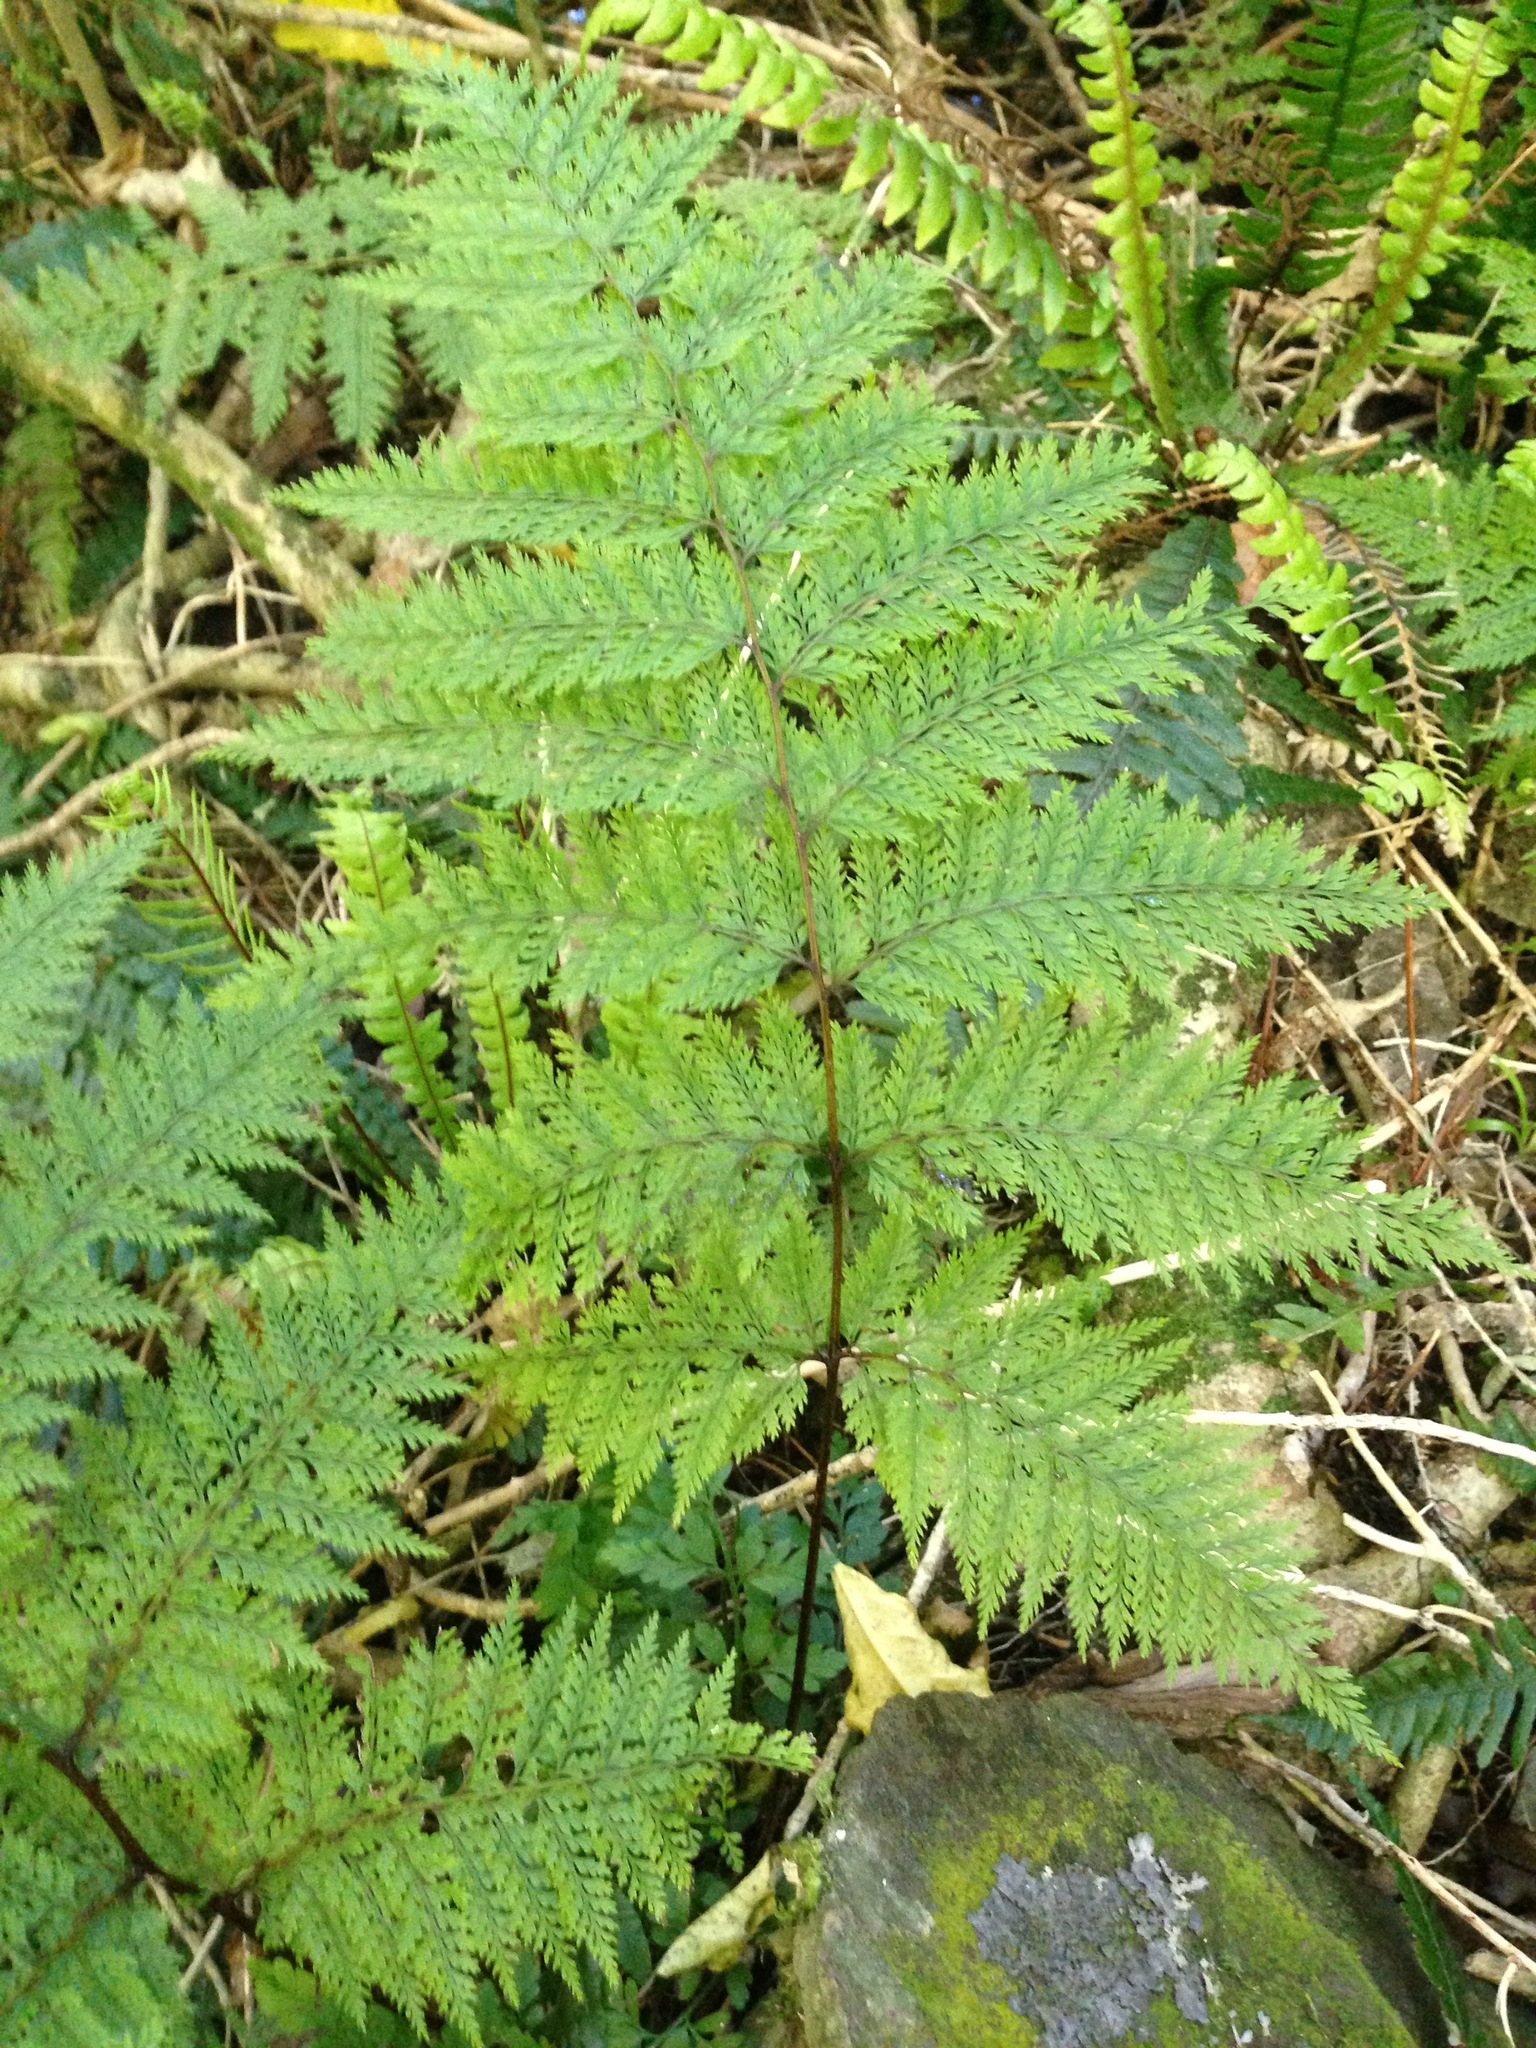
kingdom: Plantae
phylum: Tracheophyta
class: Polypodiopsida
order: Polypodiales
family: Dennstaedtiaceae
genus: Dennstaedtia
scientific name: Dennstaedtia novae-zelandiae
